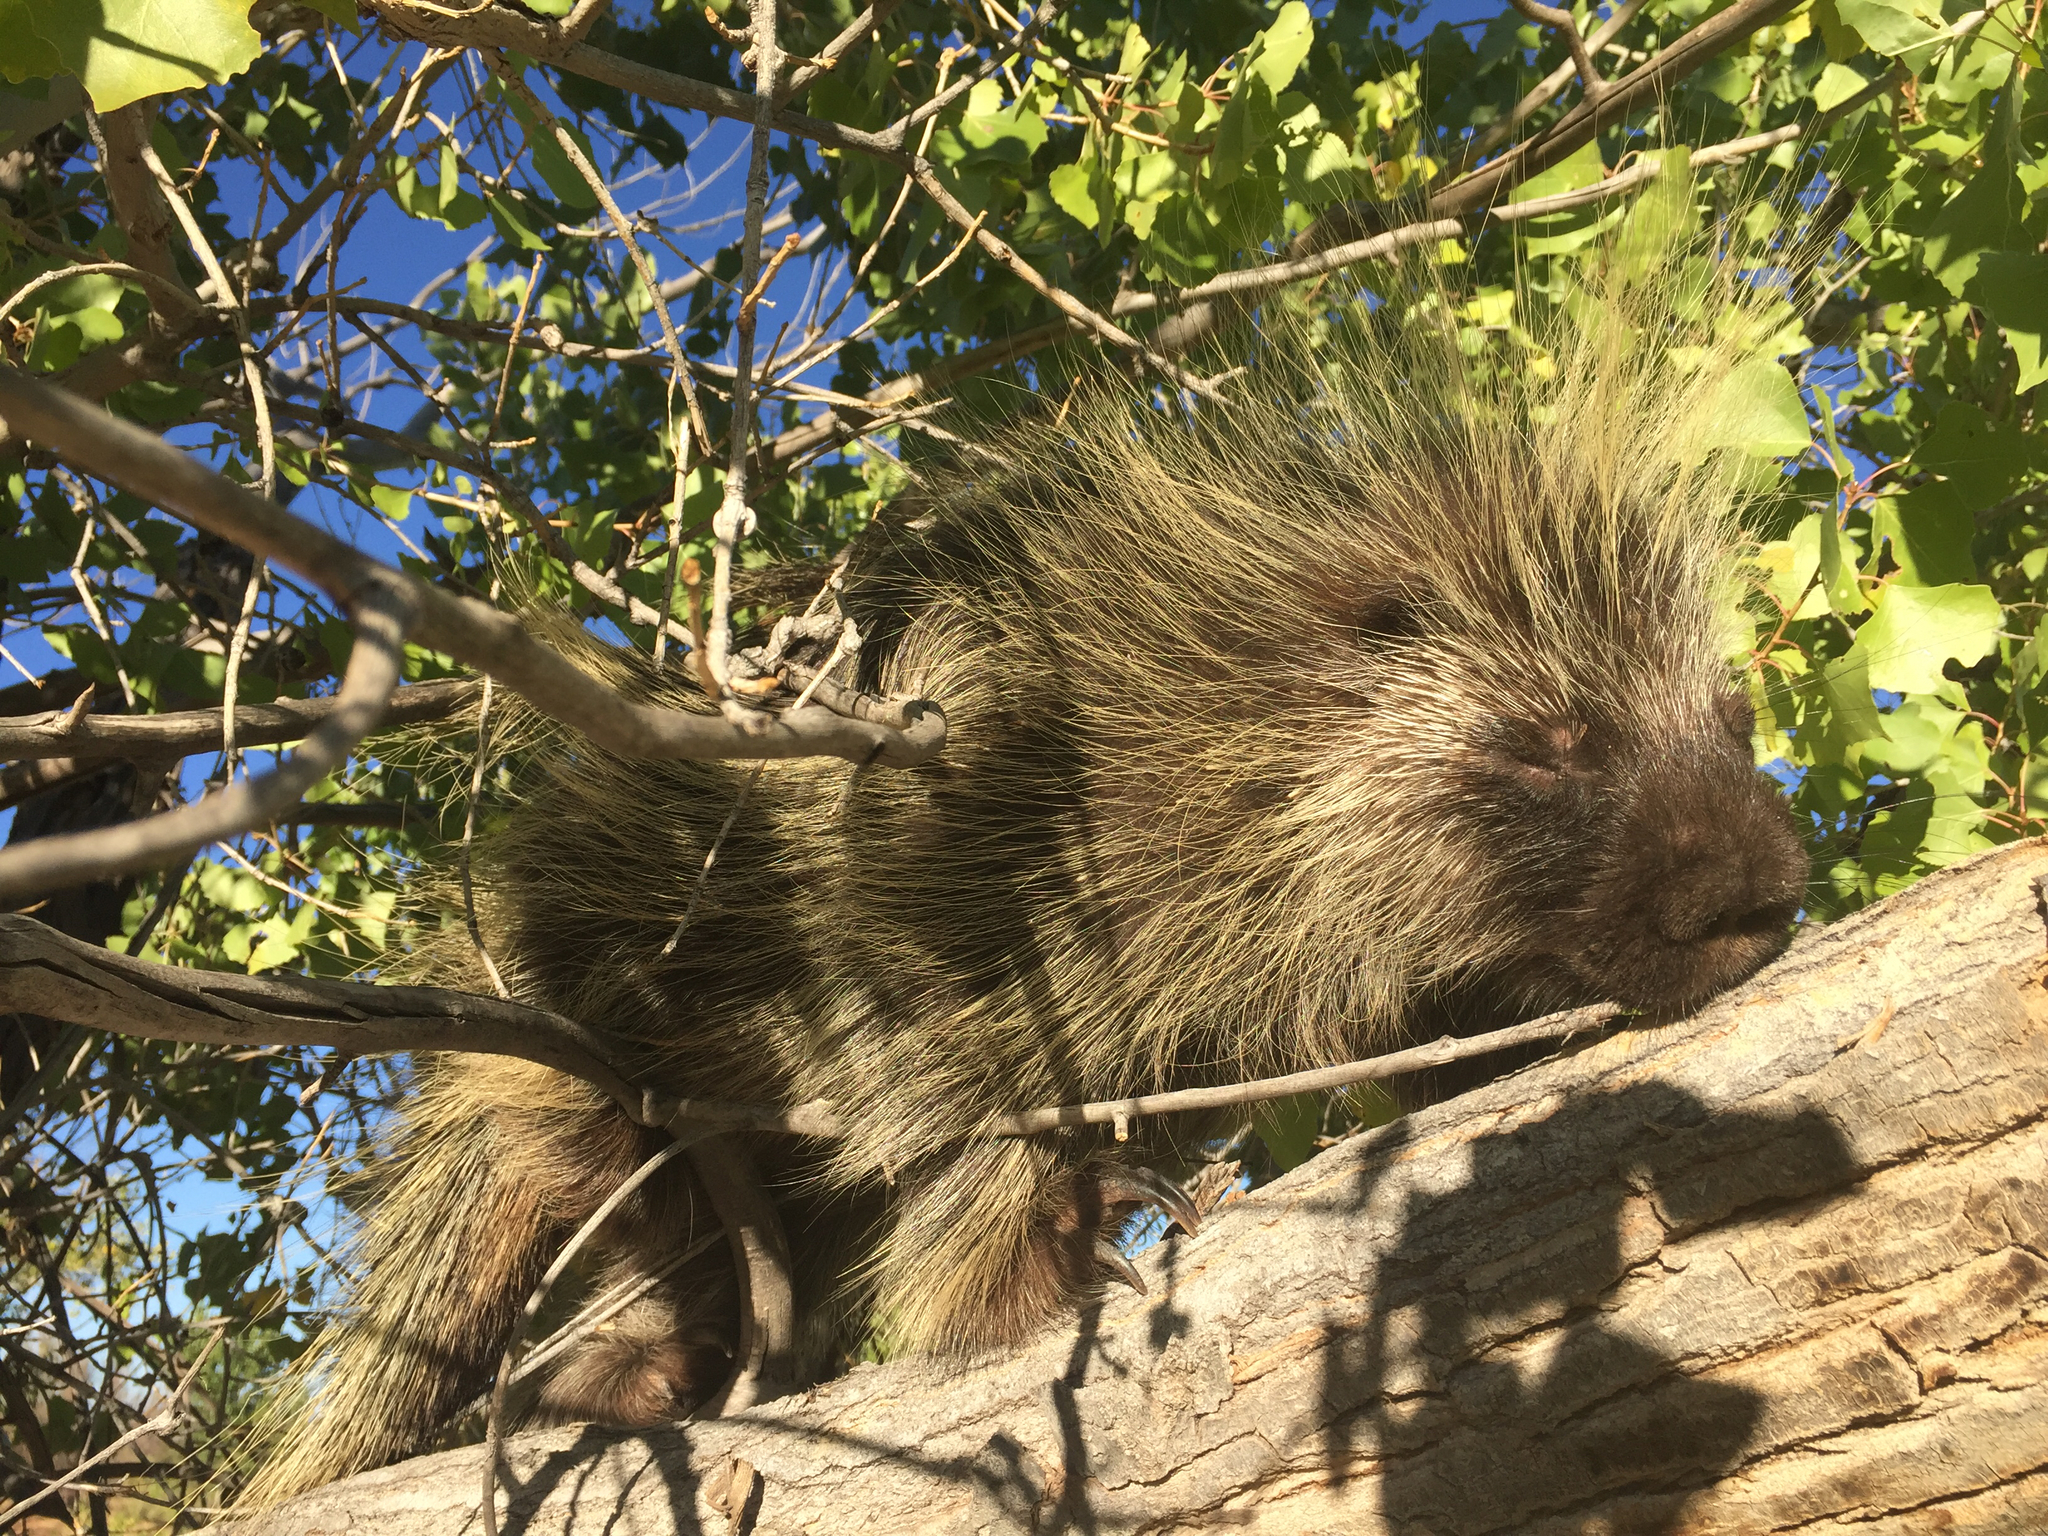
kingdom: Animalia
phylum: Chordata
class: Mammalia
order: Rodentia
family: Erethizontidae
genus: Erethizon
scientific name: Erethizon dorsatus
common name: North american porcupine
